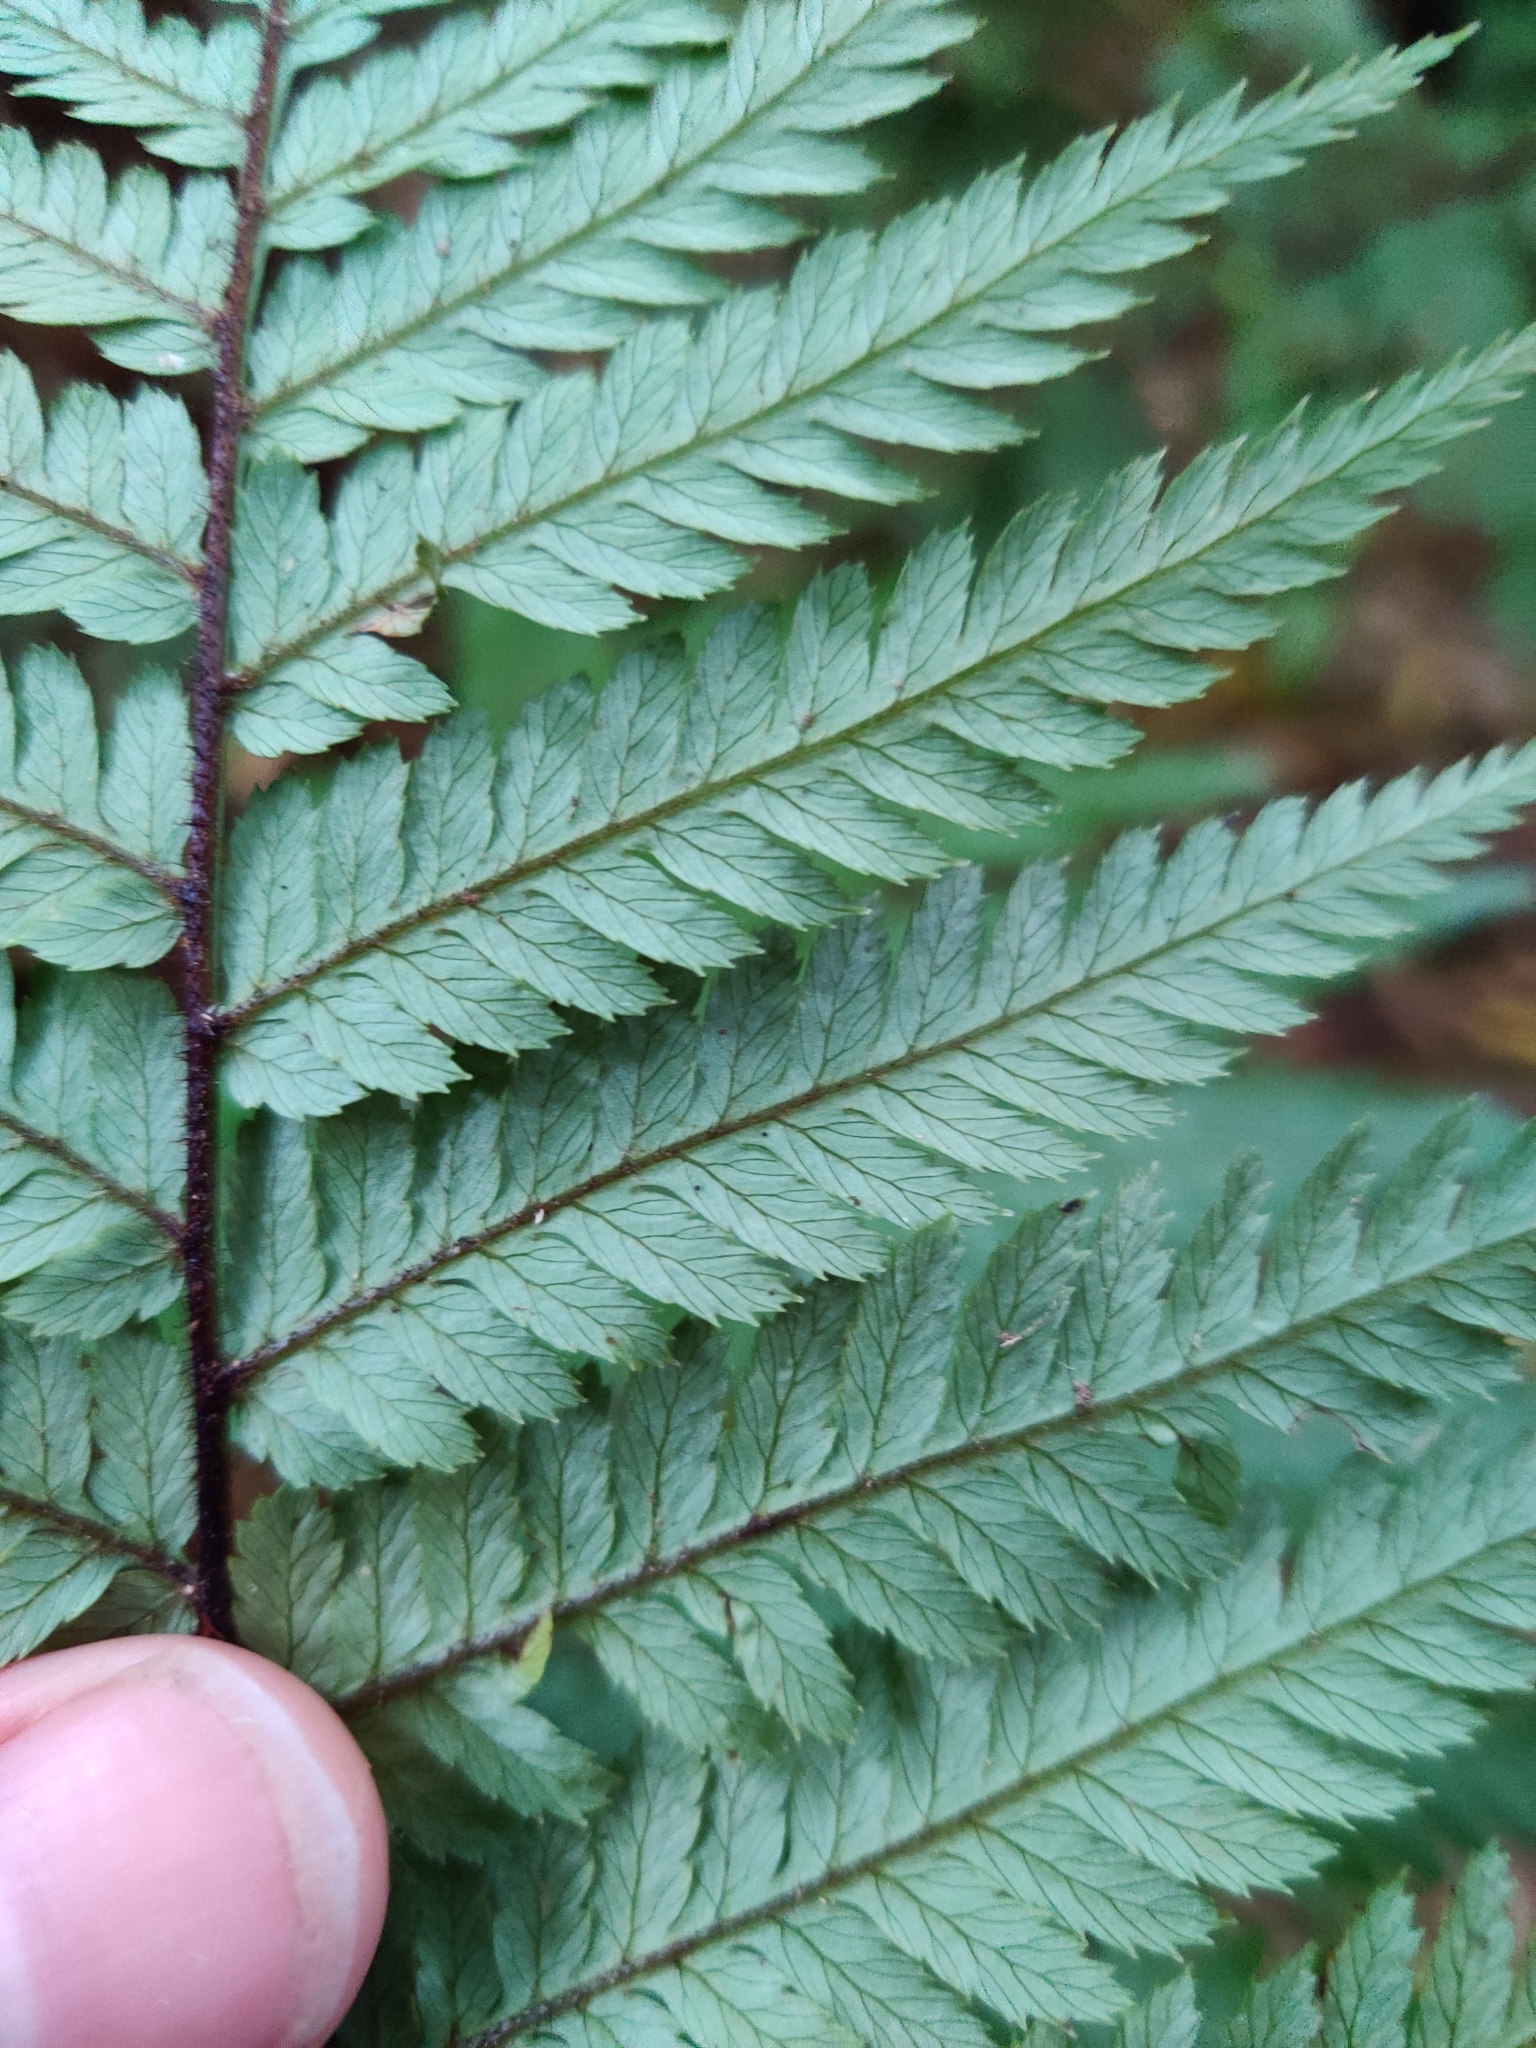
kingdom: Plantae
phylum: Tracheophyta
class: Polypodiopsida
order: Cyatheales
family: Dicksoniaceae
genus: Dicksonia
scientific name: Dicksonia squarrosa
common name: Hard treefern
